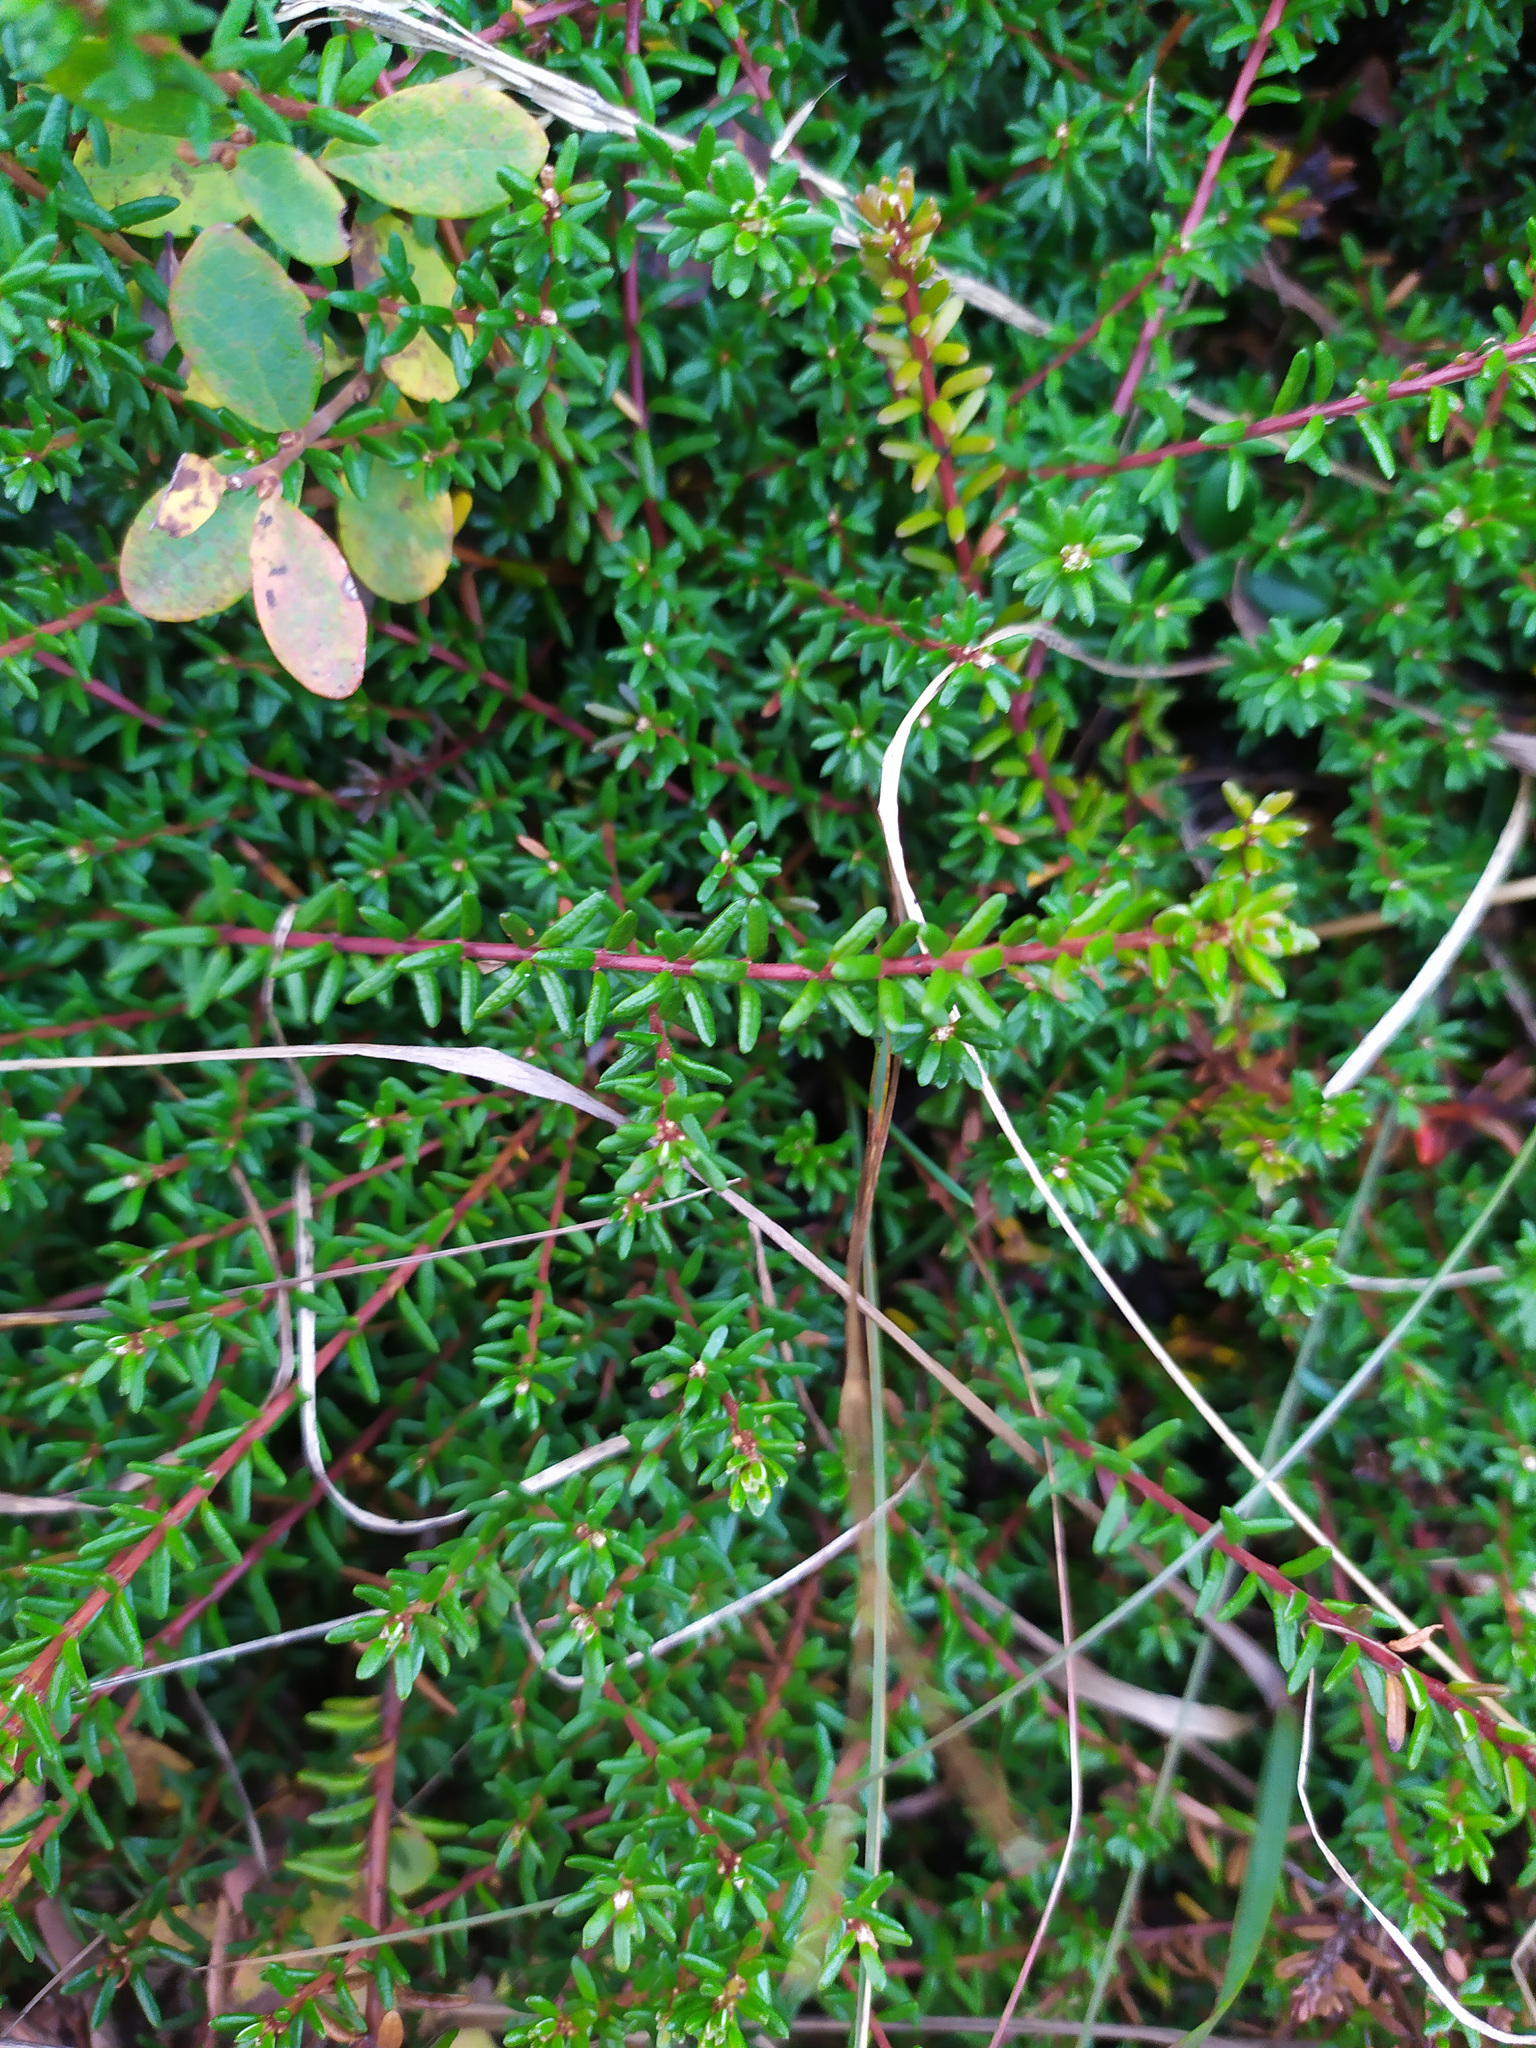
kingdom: Plantae
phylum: Tracheophyta
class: Magnoliopsida
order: Ericales
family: Ericaceae
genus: Empetrum
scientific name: Empetrum nigrum
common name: Black crowberry
